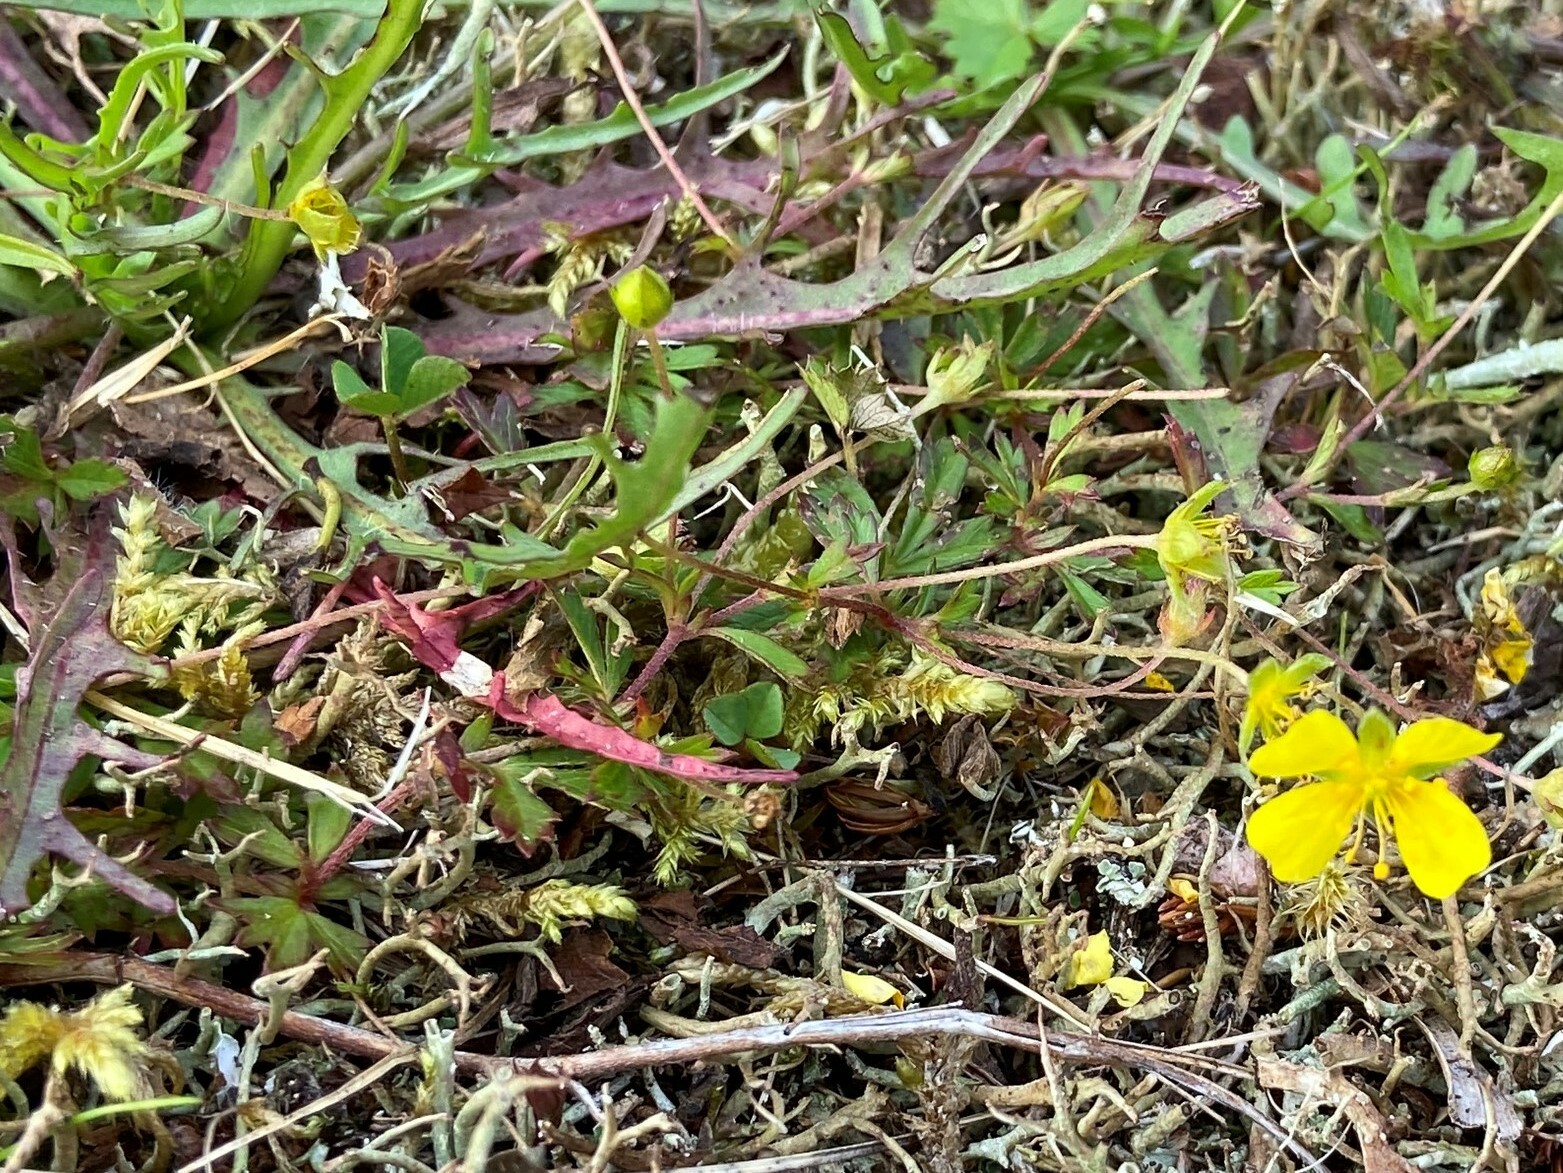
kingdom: Plantae
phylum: Tracheophyta
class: Magnoliopsida
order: Rosales
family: Rosaceae
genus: Potentilla
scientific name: Potentilla erecta
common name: Tormentil
